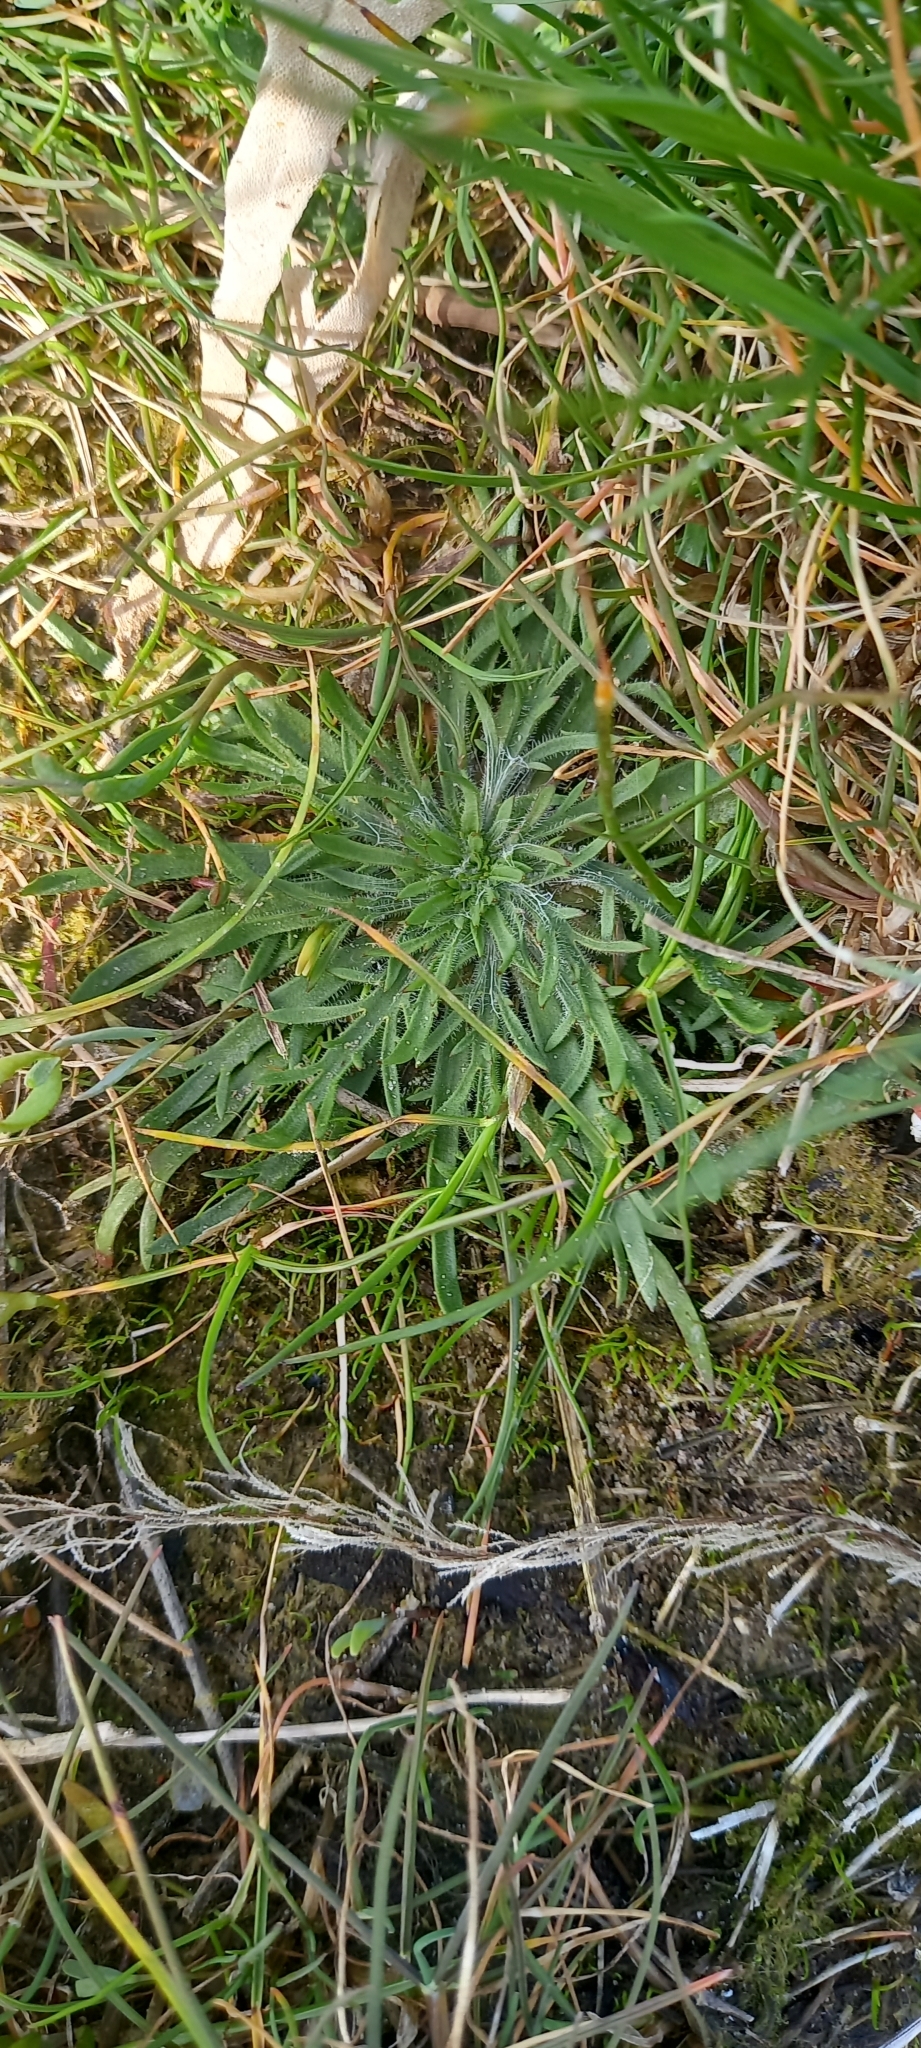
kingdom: Plantae
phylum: Tracheophyta
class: Magnoliopsida
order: Lamiales
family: Plantaginaceae
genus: Plantago
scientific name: Plantago coronopus
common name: Buck's-horn plantain
